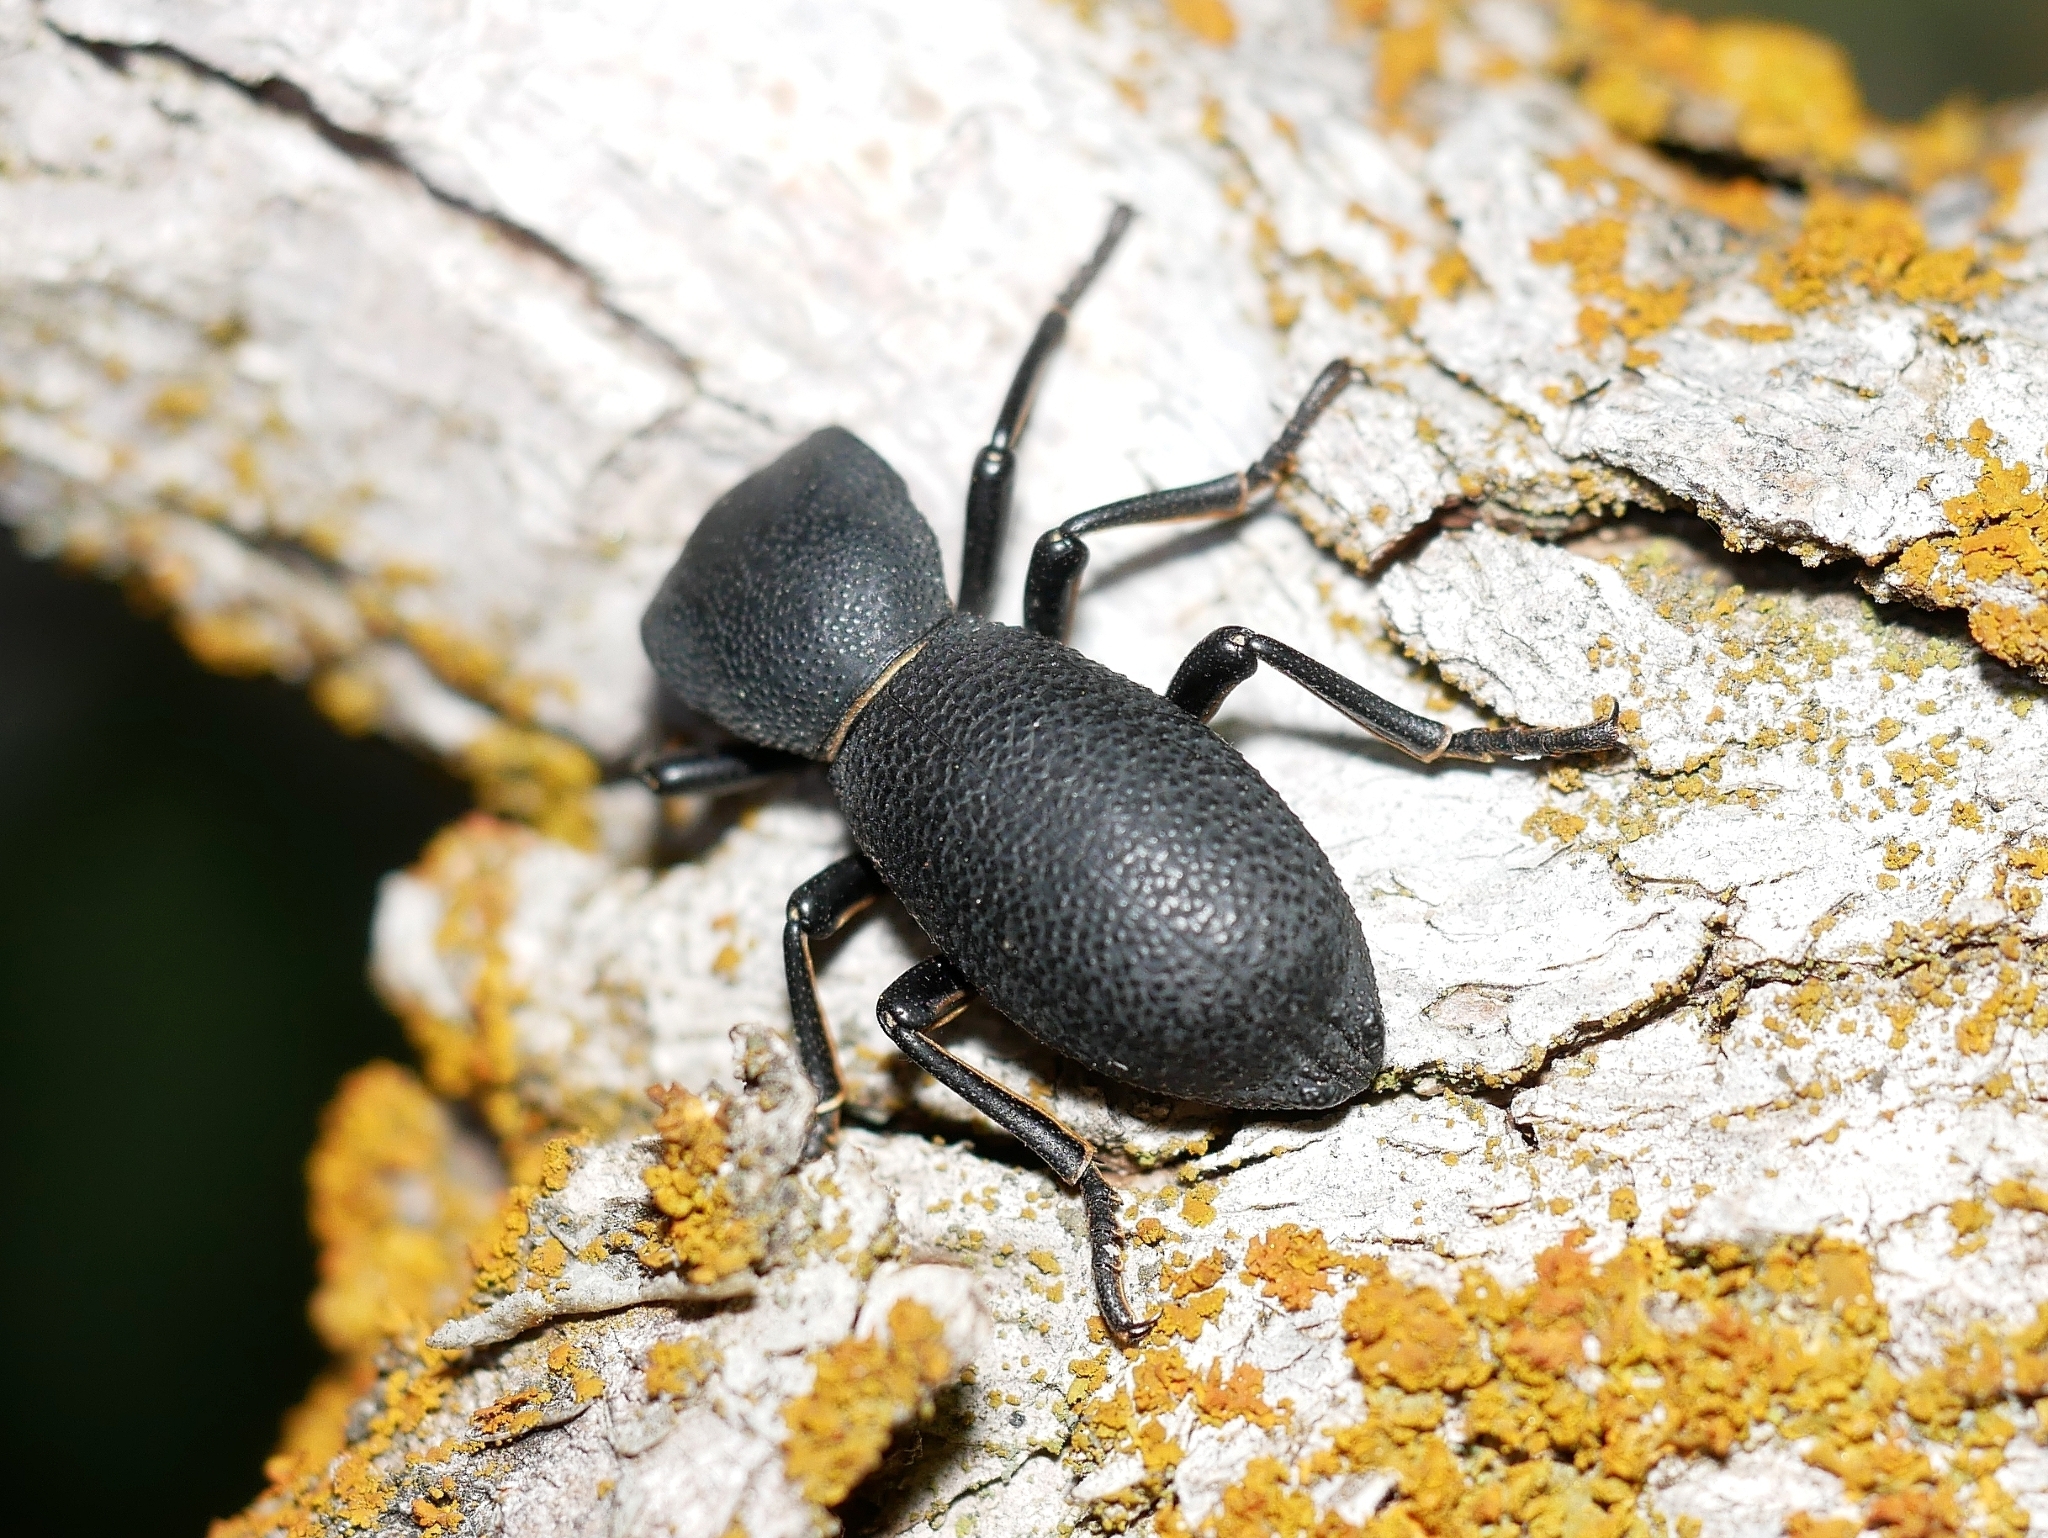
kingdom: Animalia
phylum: Arthropoda
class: Insecta
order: Coleoptera
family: Zopheridae
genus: Zopherus
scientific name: Zopherus uteanus
